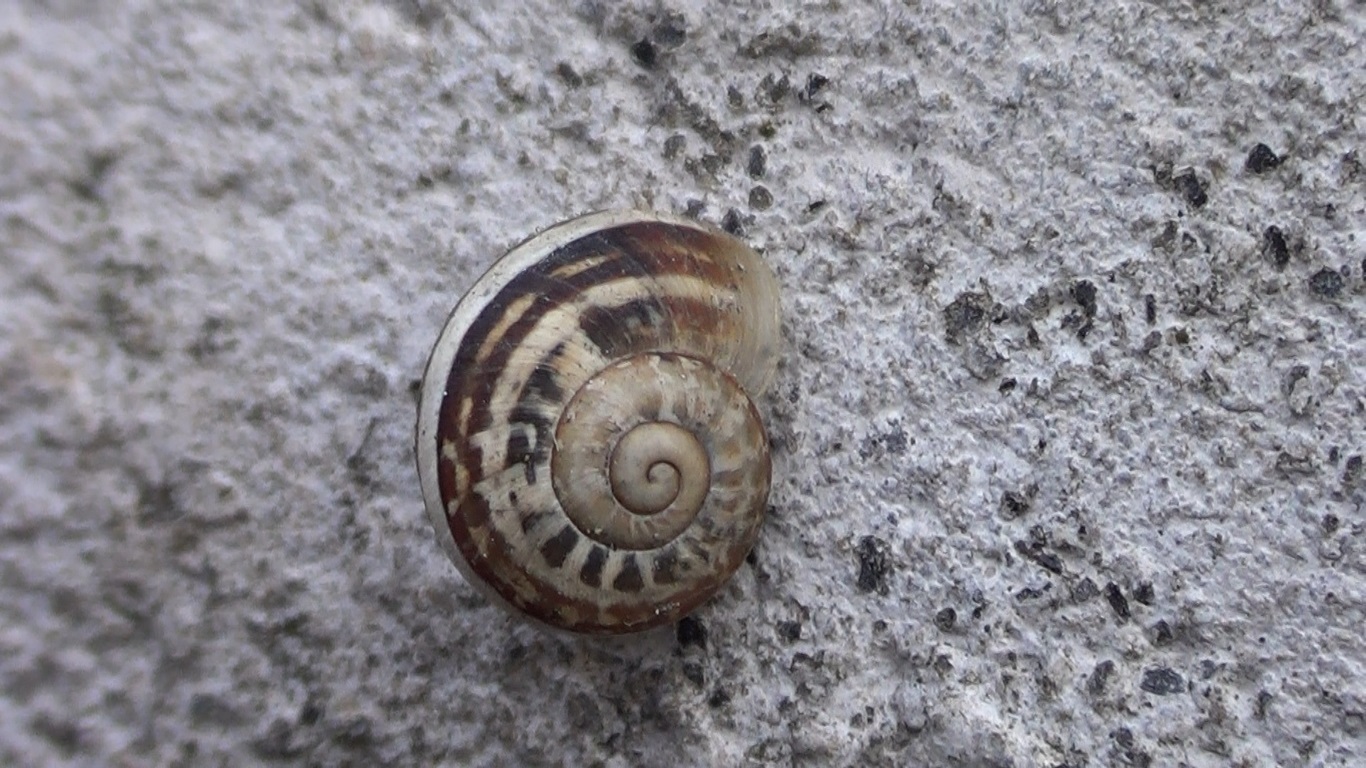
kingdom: Animalia
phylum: Mollusca
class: Gastropoda
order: Stylommatophora
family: Helicidae
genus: Eobania
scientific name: Eobania vermiculata
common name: Chocolateband snail
